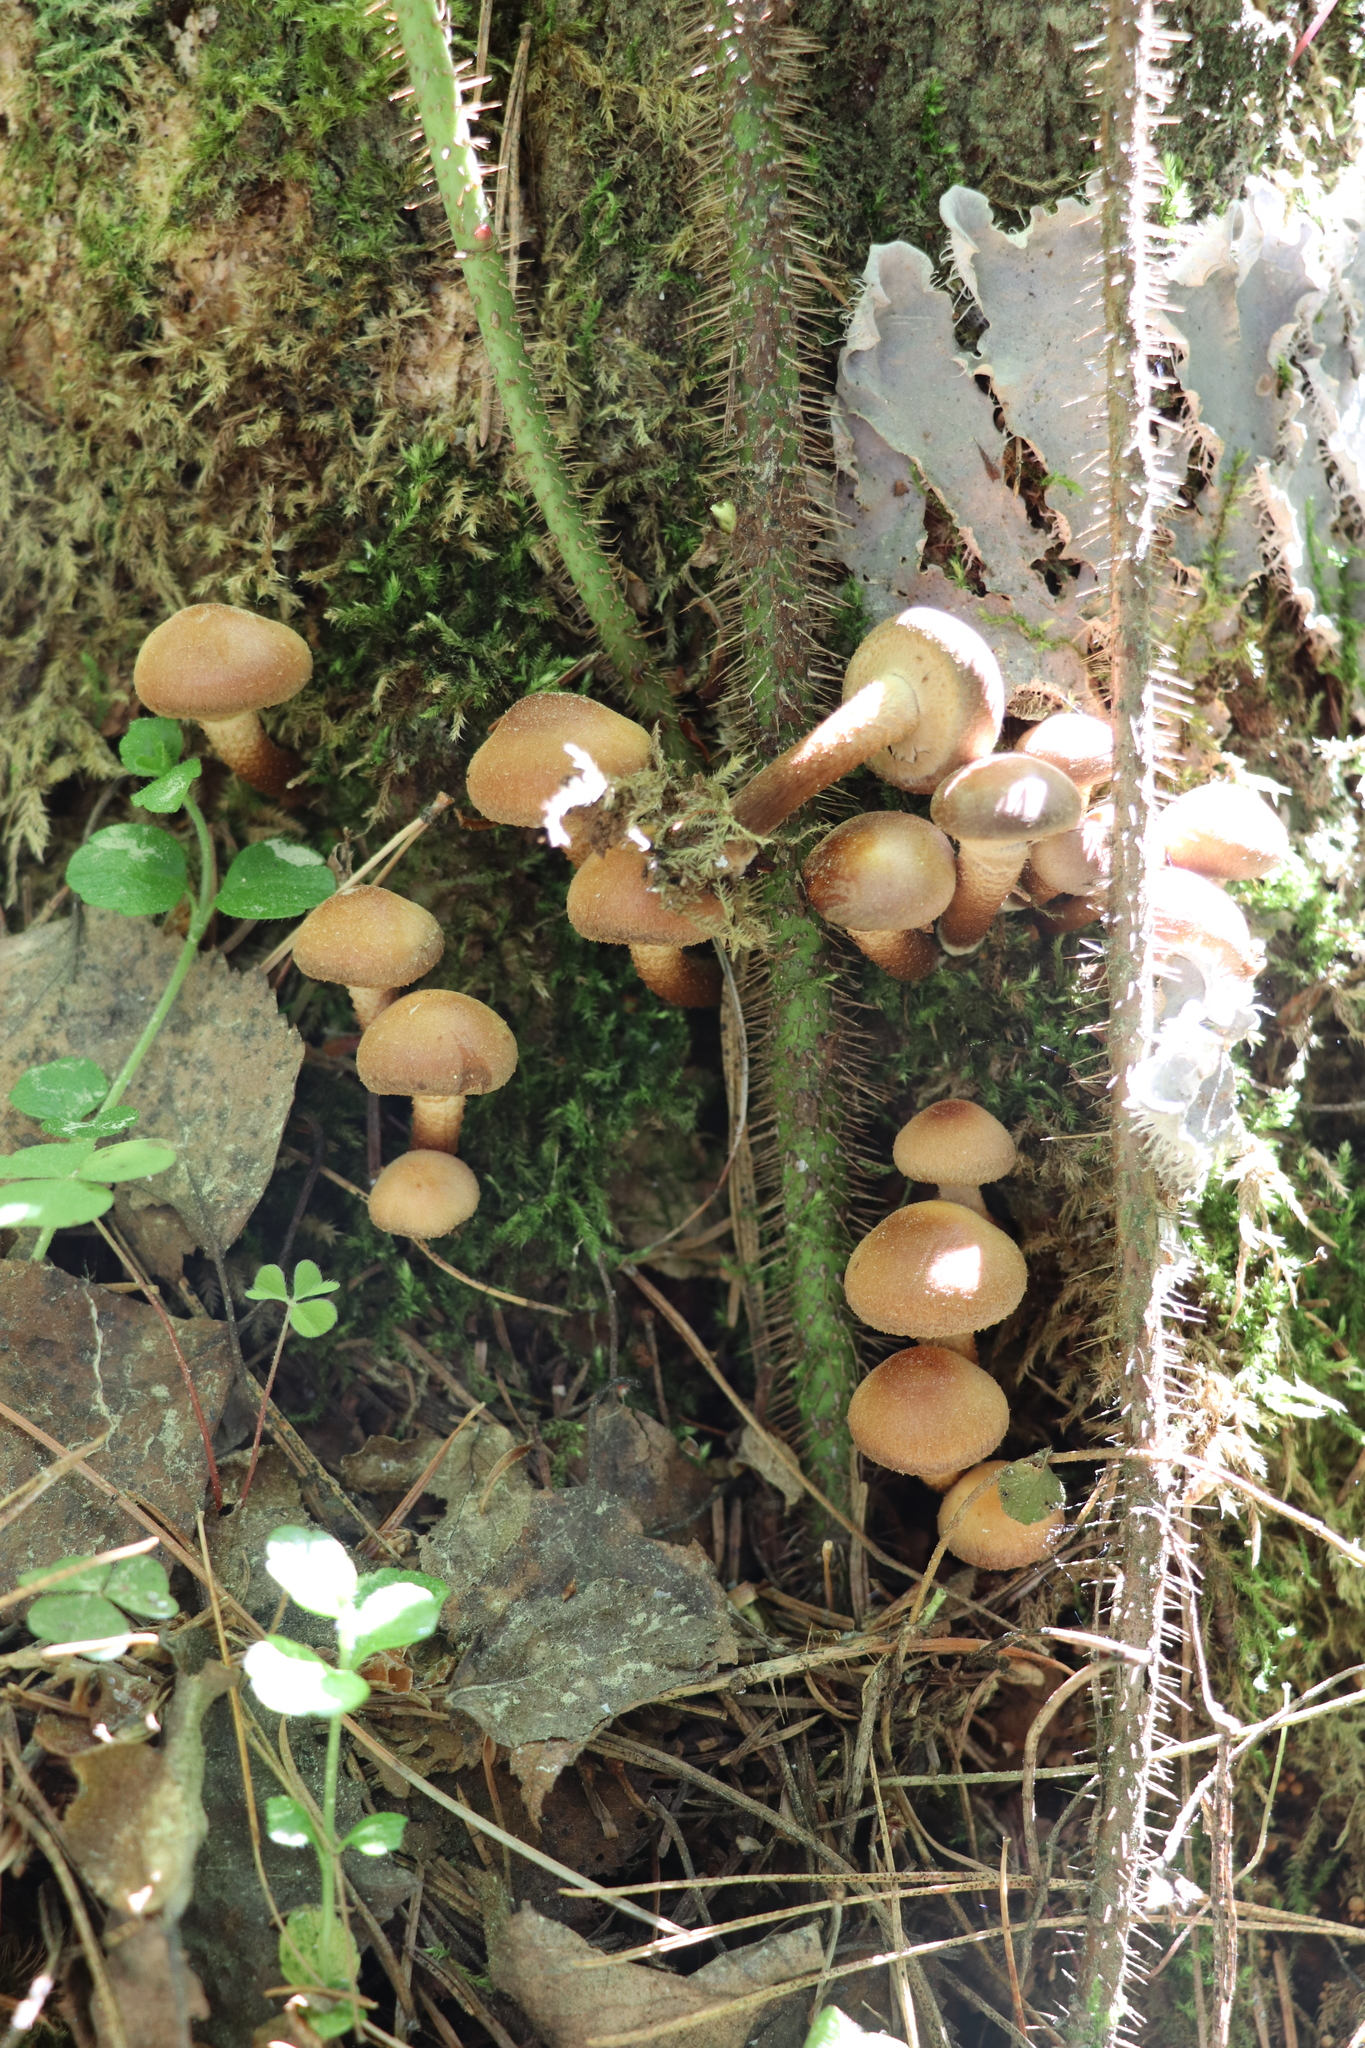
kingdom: Fungi
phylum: Basidiomycota
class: Agaricomycetes
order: Agaricales
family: Strophariaceae
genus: Kuehneromyces
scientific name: Kuehneromyces mutabilis
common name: Sheathed woodtuft
